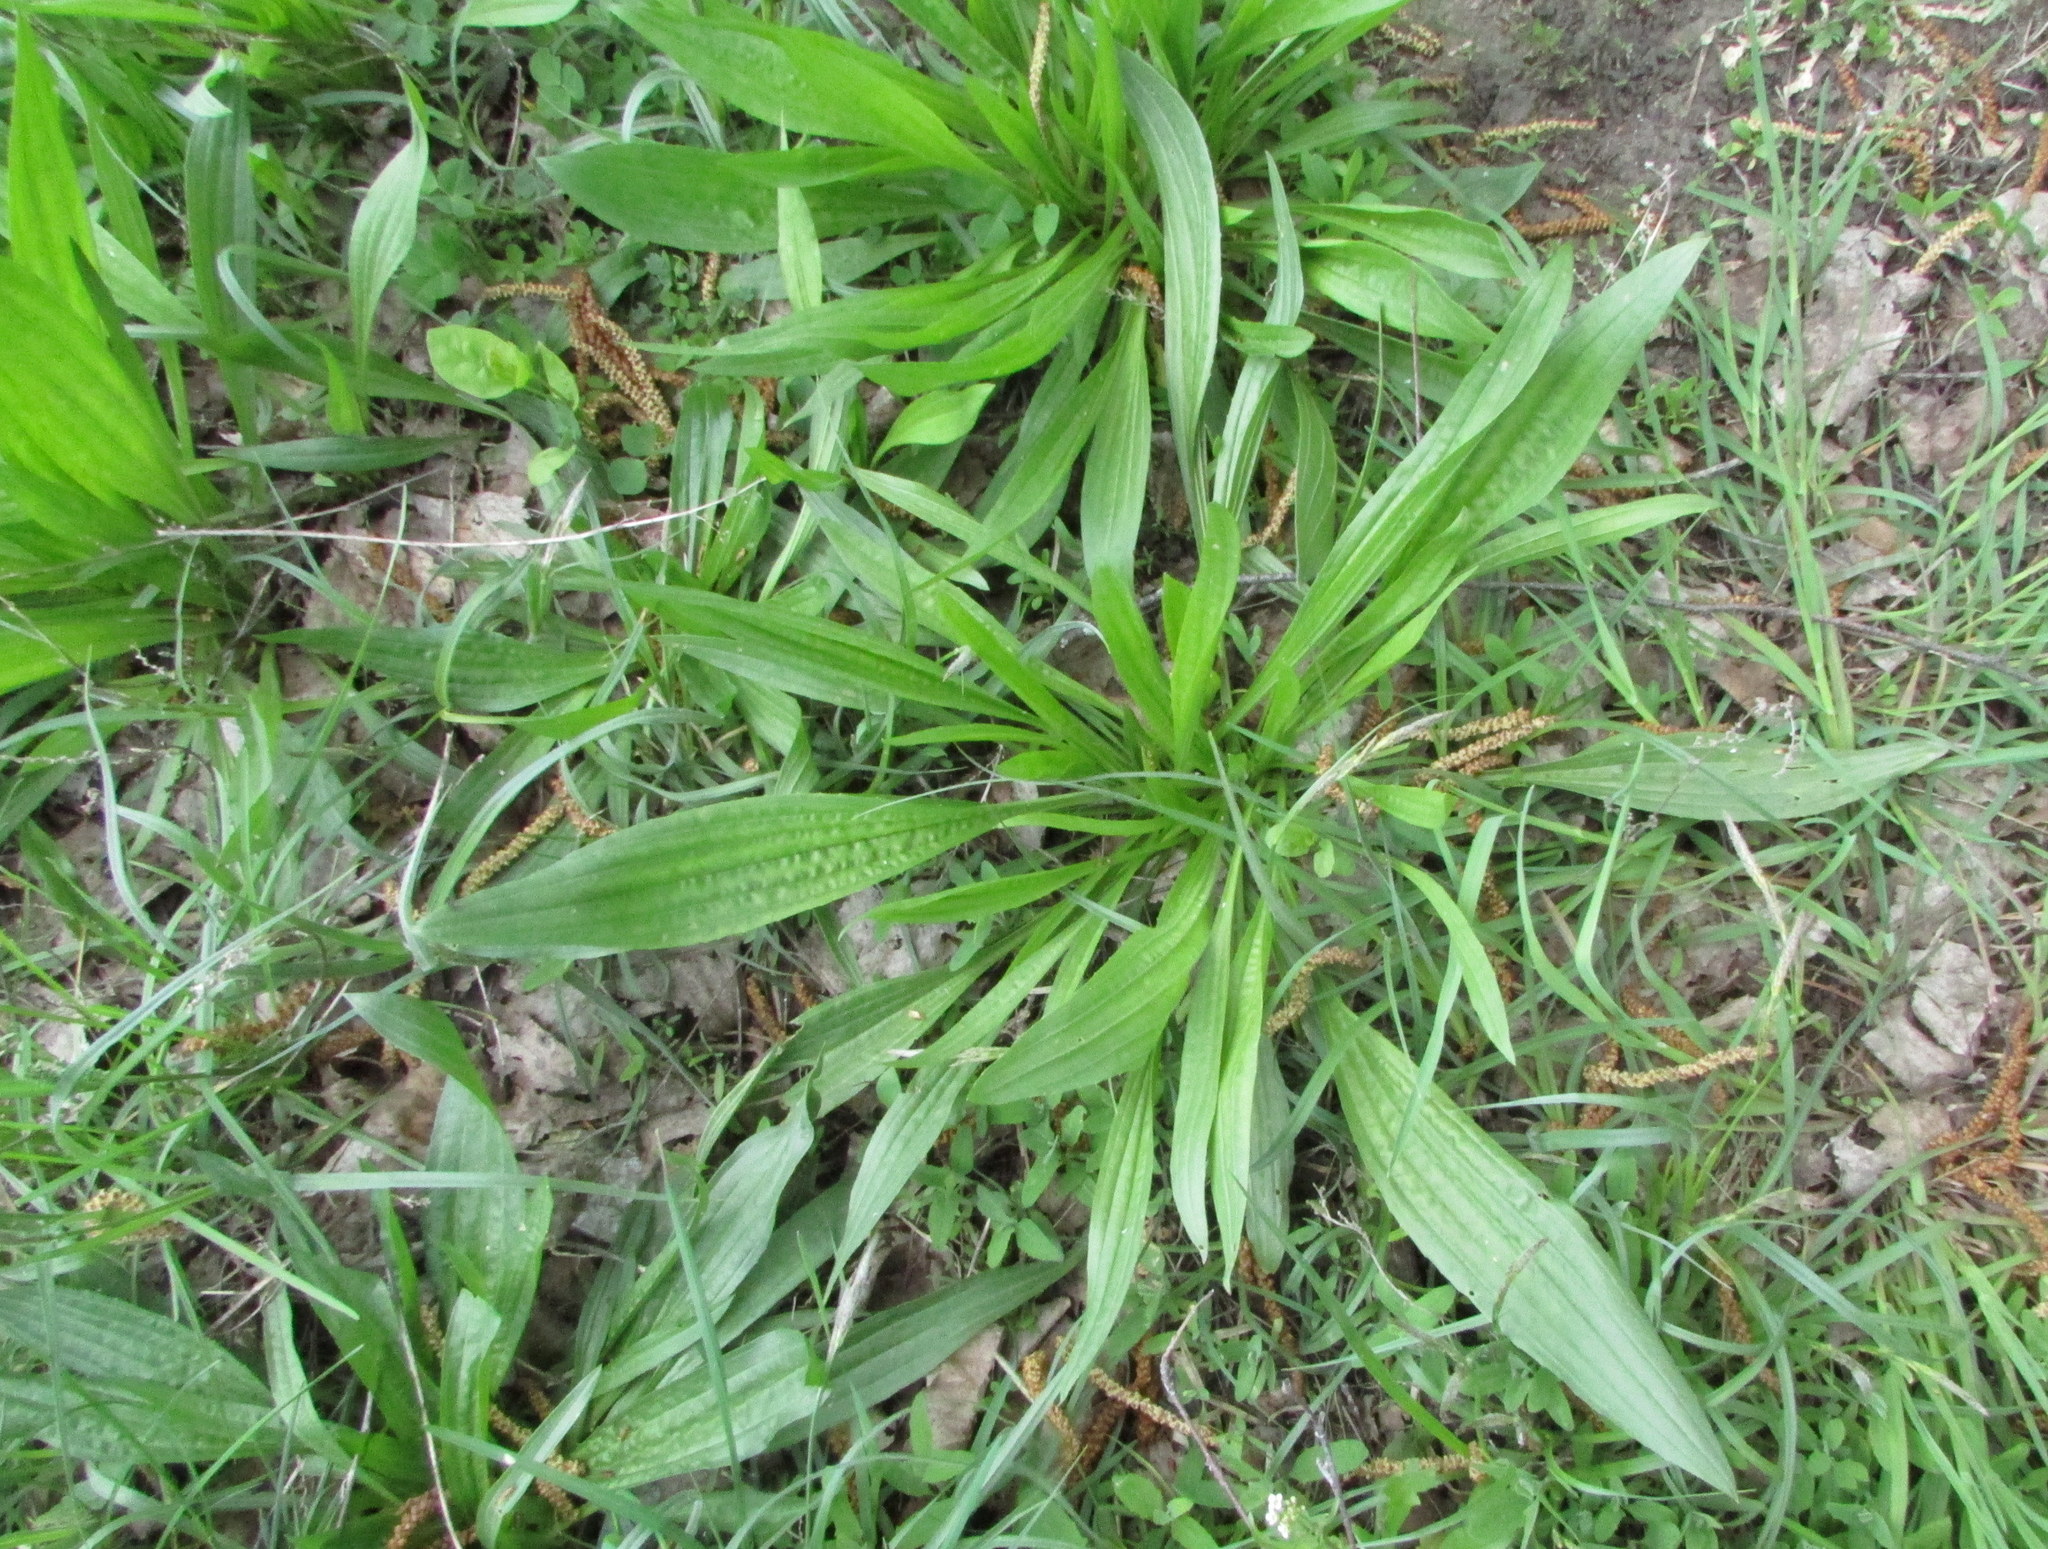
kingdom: Plantae
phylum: Tracheophyta
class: Magnoliopsida
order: Lamiales
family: Plantaginaceae
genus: Plantago
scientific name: Plantago lanceolata
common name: Ribwort plantain
